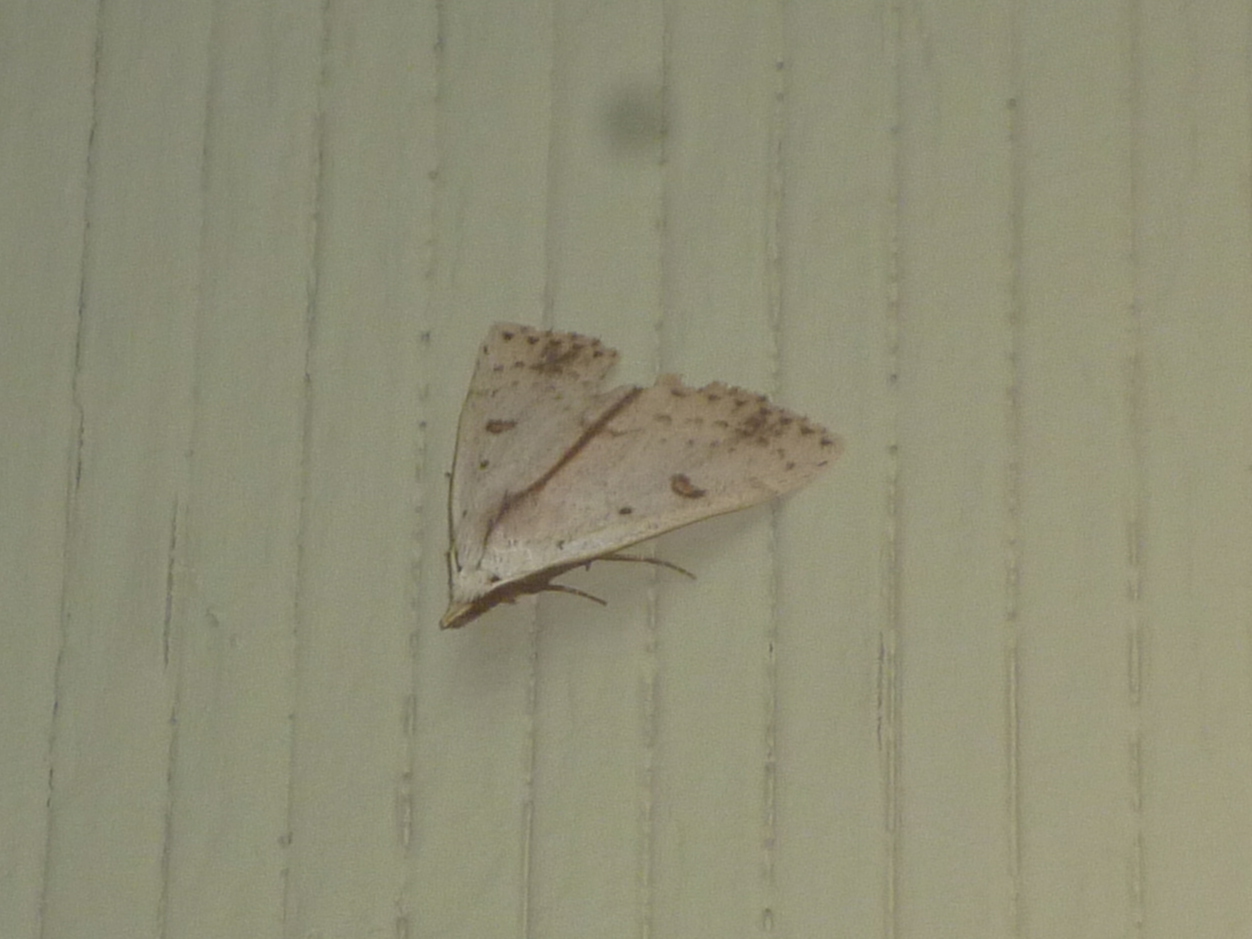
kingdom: Animalia
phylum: Arthropoda
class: Insecta
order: Lepidoptera
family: Erebidae
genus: Scolecocampa
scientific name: Scolecocampa liburna
